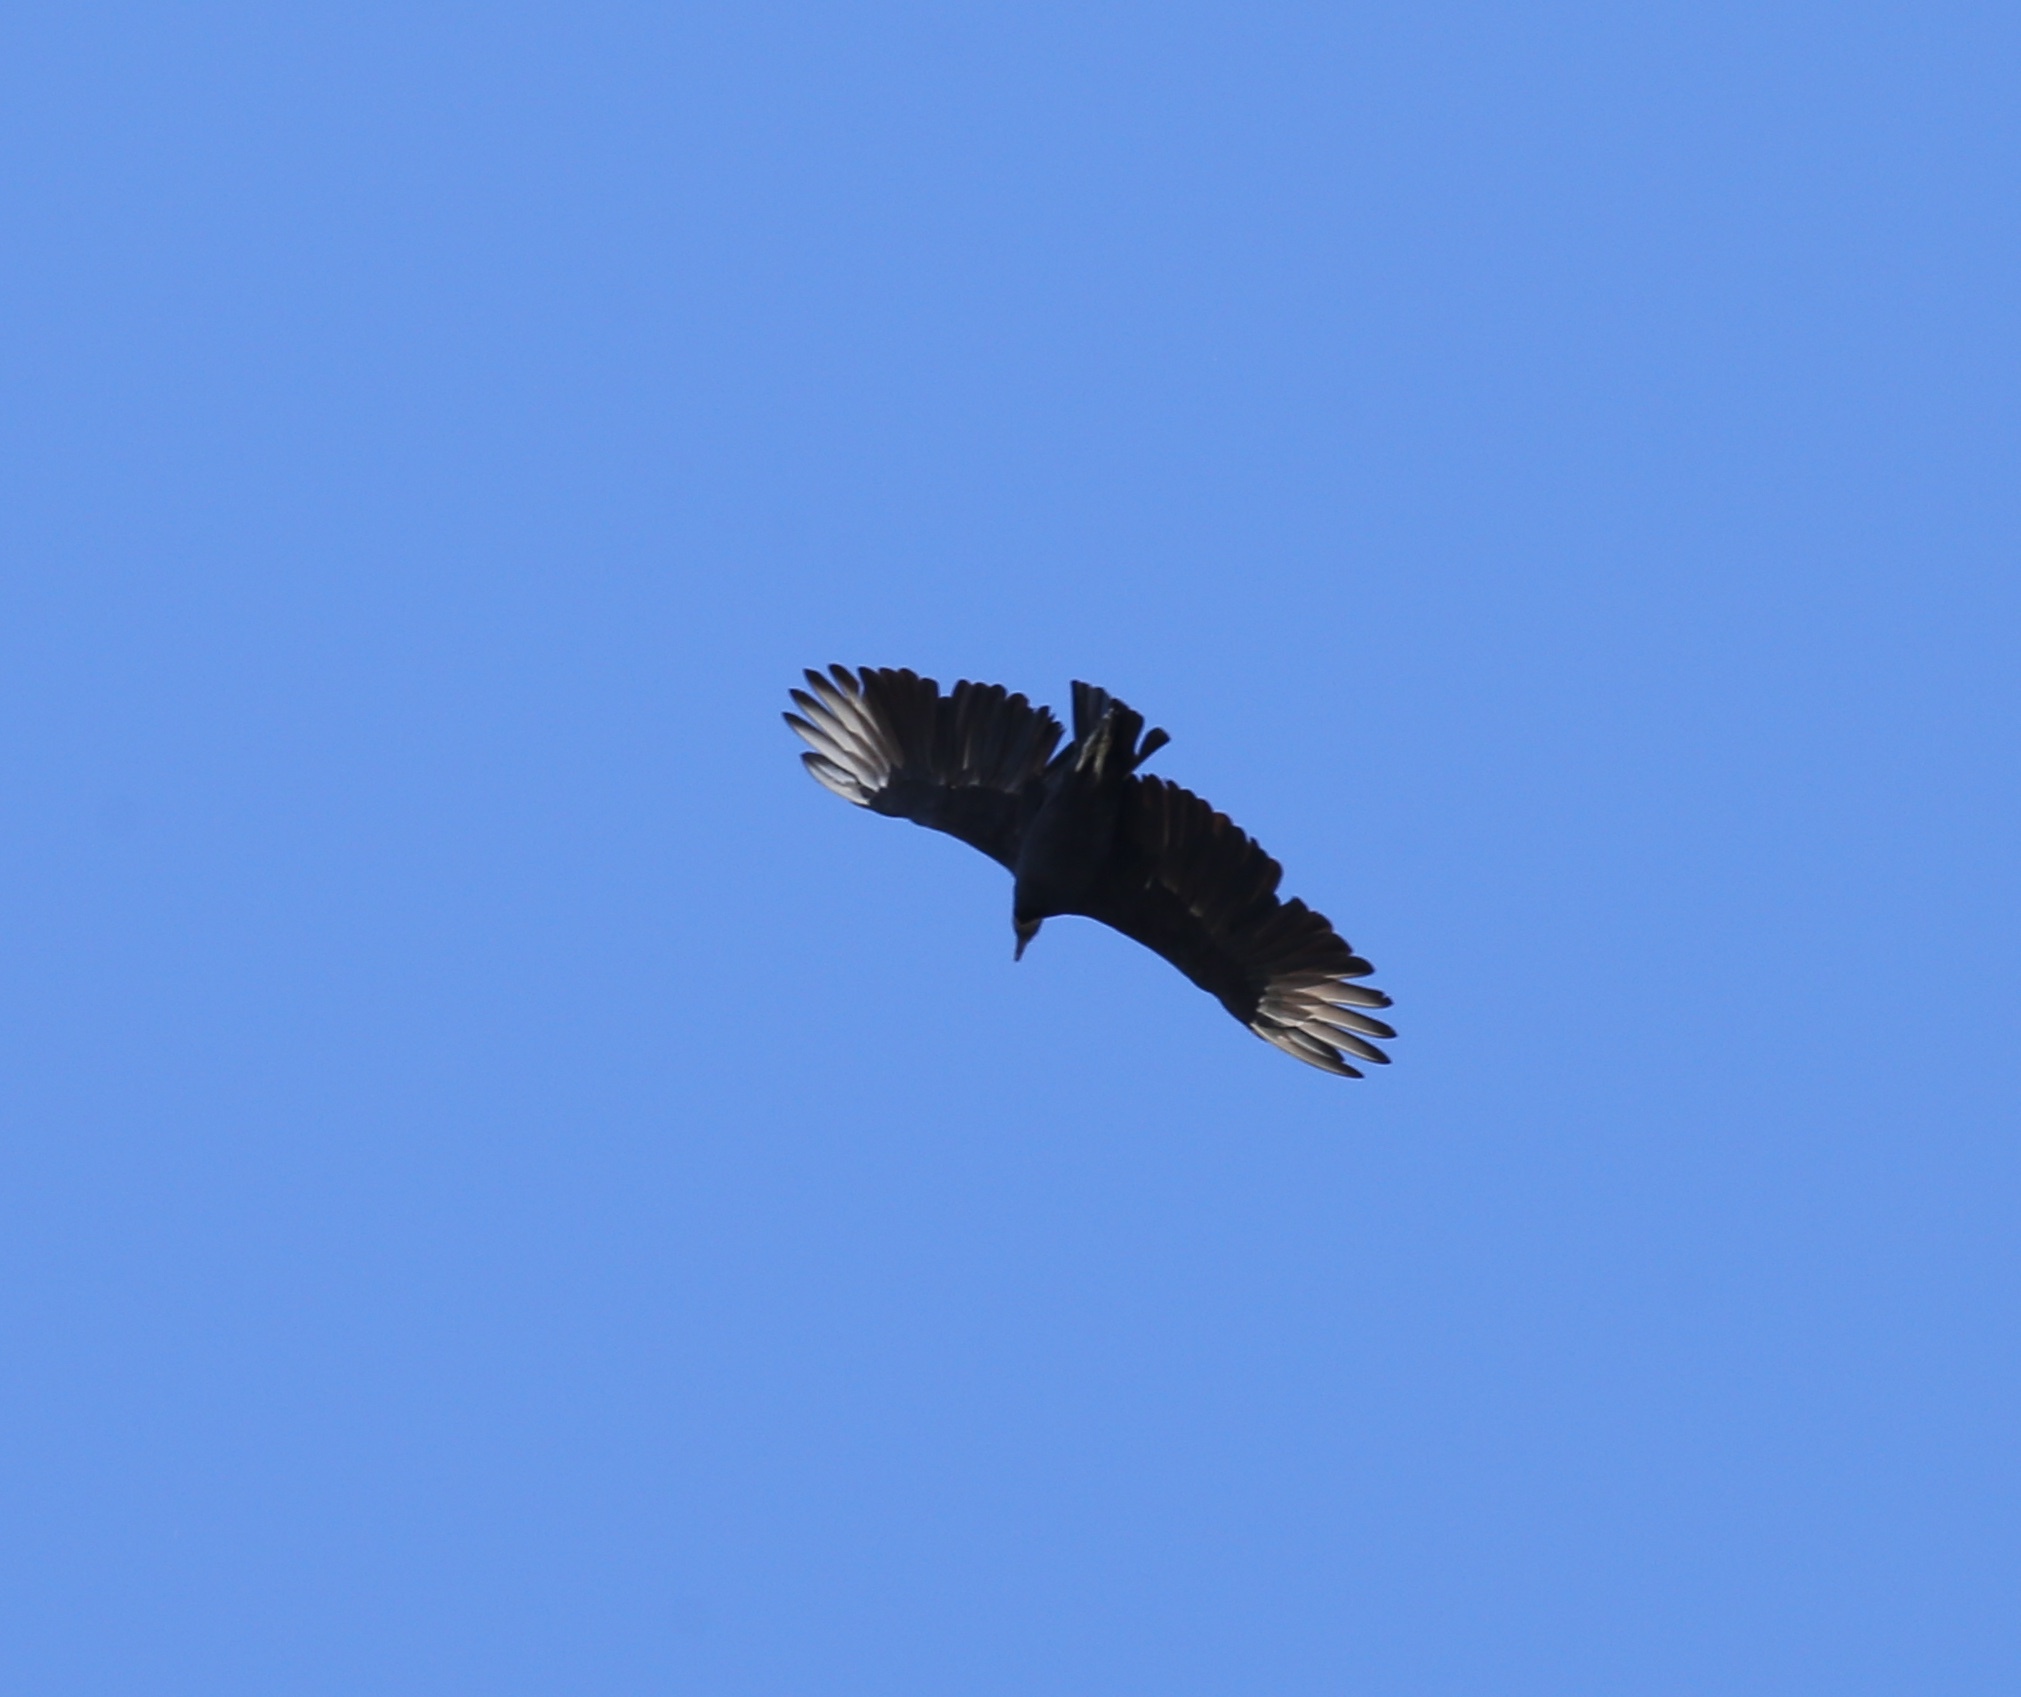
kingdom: Animalia
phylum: Chordata
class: Aves
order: Accipitriformes
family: Cathartidae
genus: Coragyps
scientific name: Coragyps atratus
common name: Black vulture
